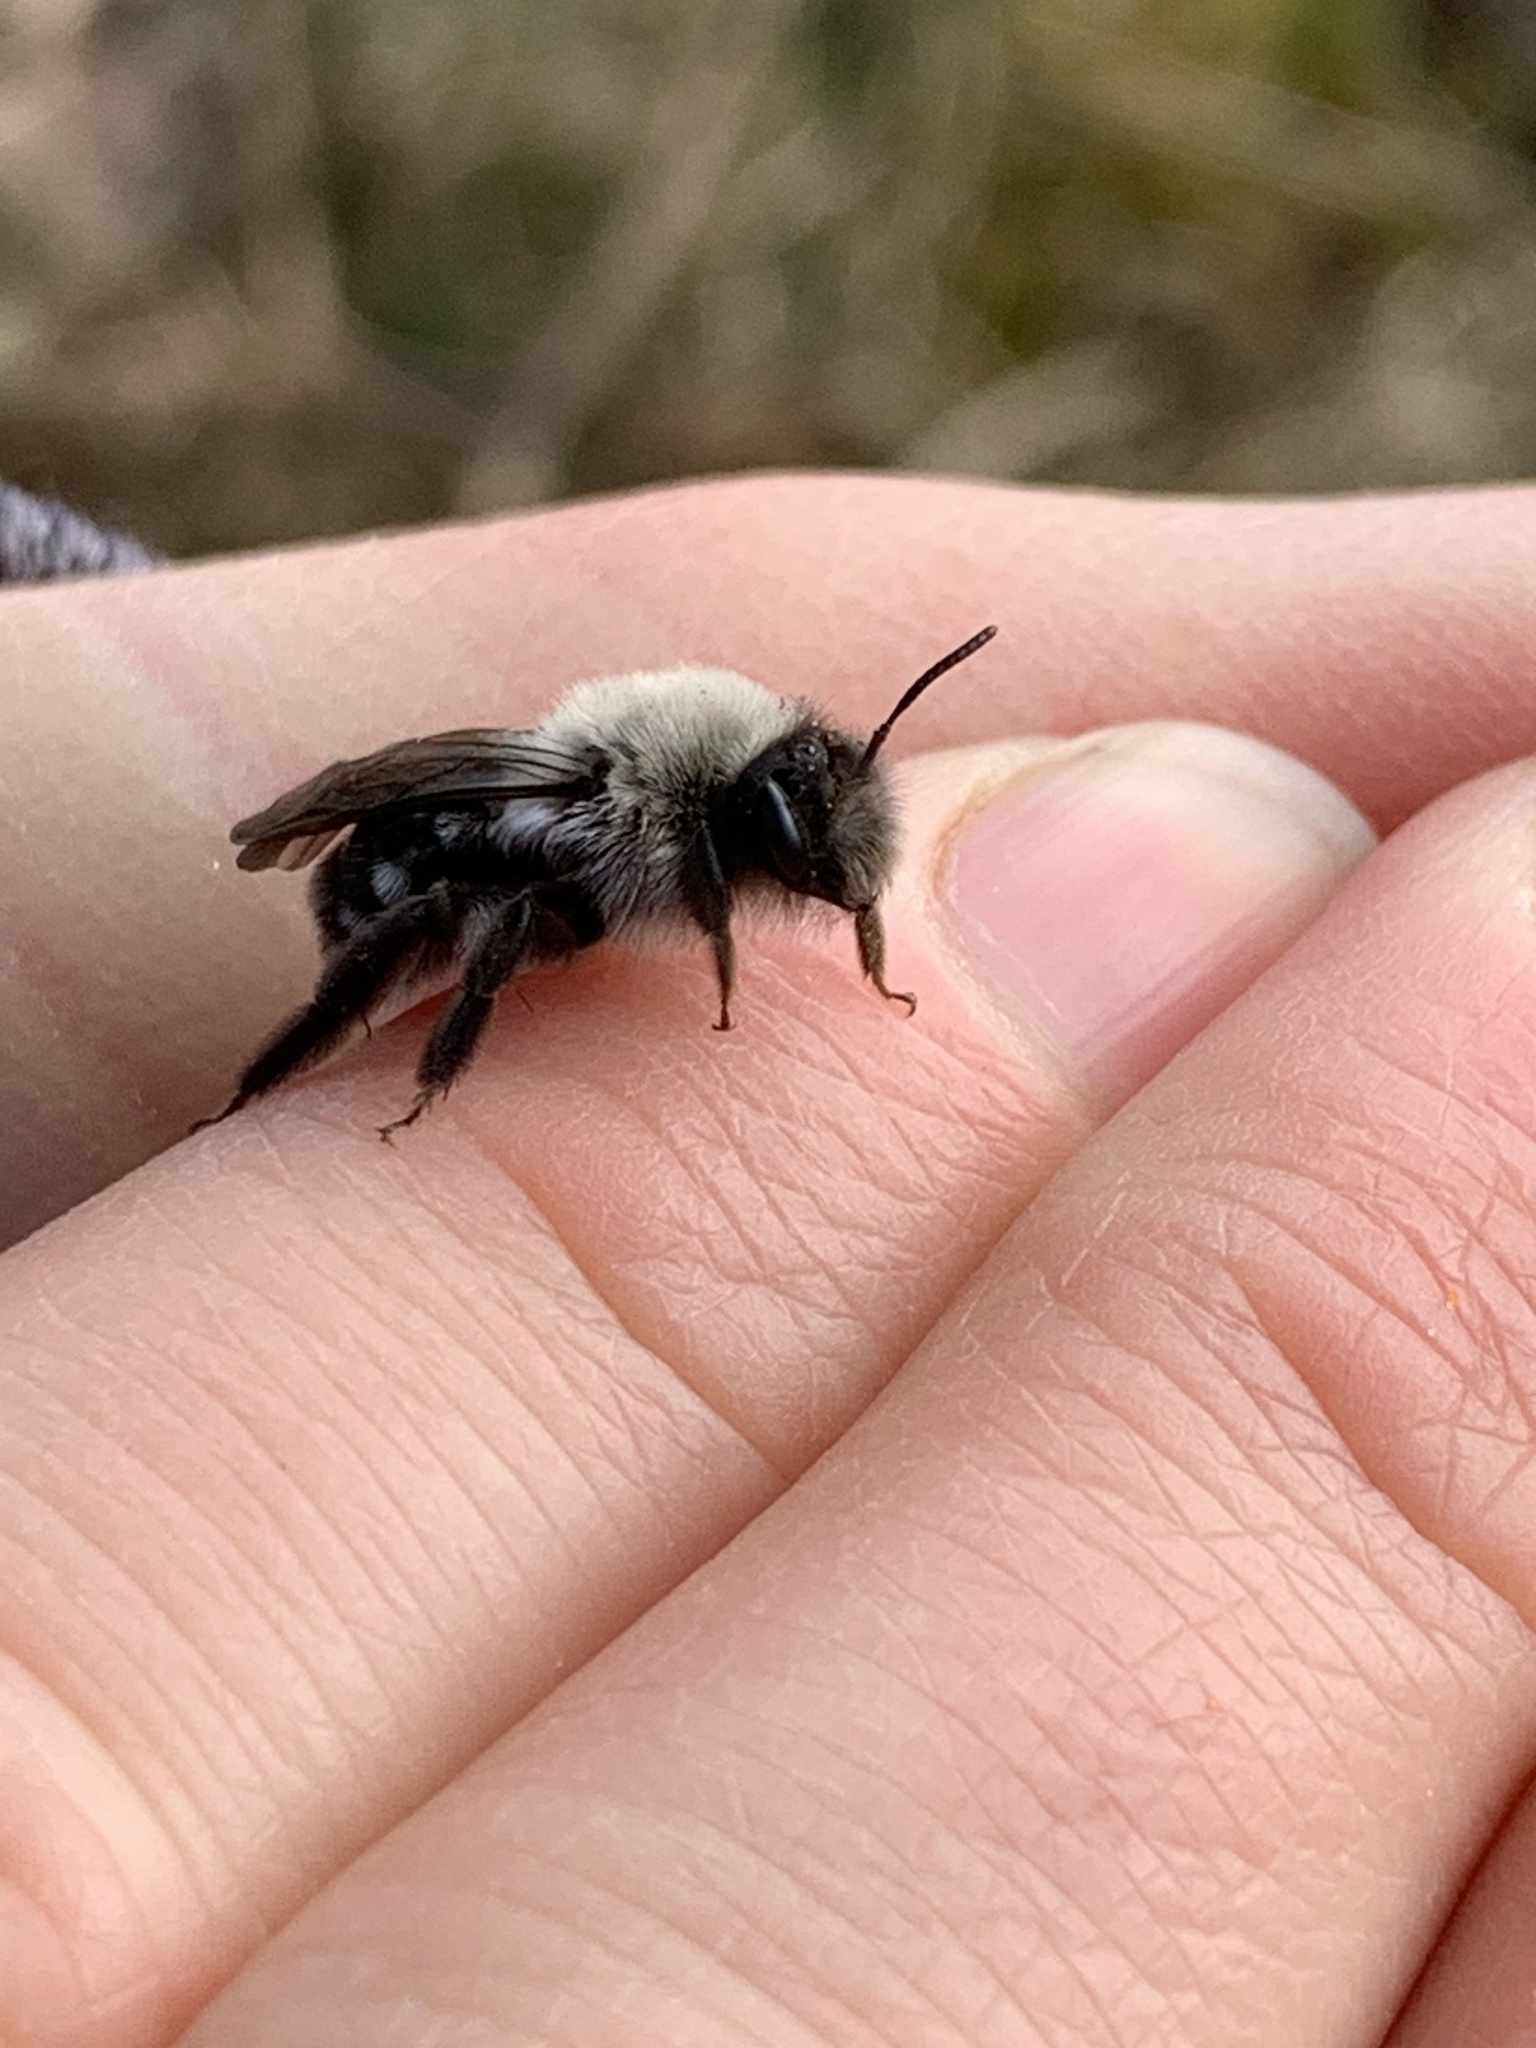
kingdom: Animalia
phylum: Arthropoda
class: Insecta
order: Hymenoptera
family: Andrenidae
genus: Andrena
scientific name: Andrena vaga
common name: Grey-backed mining bee
